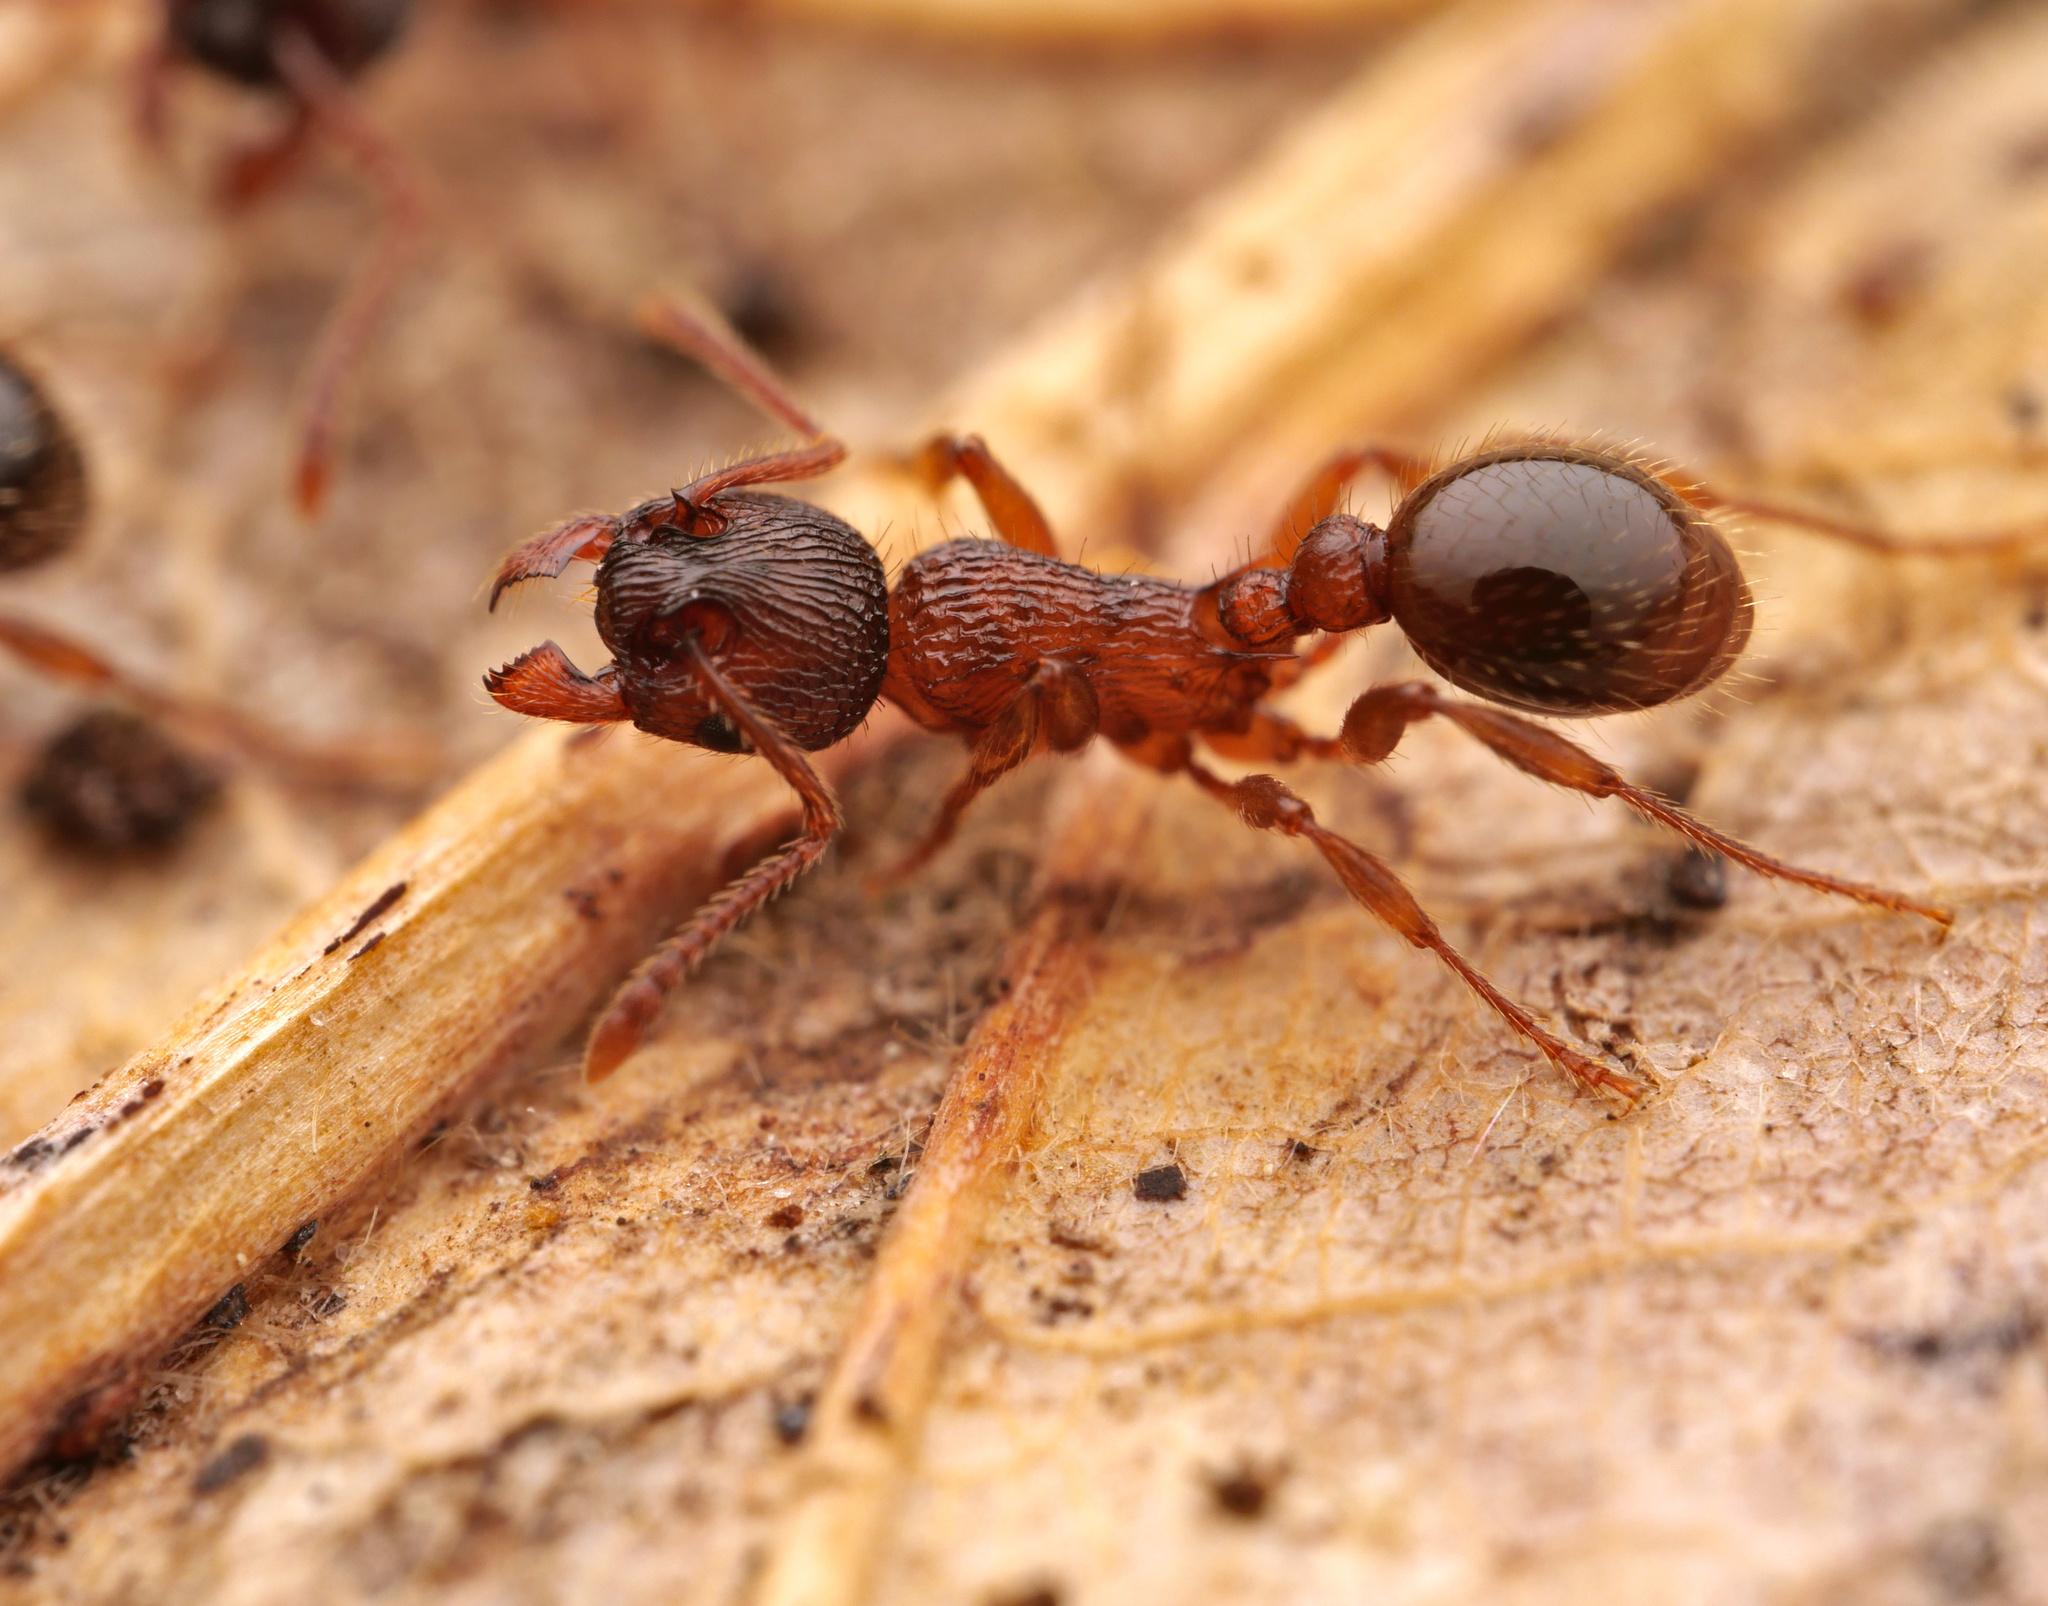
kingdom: Animalia
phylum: Arthropoda
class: Insecta
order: Hymenoptera
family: Formicidae
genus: Myrmica
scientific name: Myrmica schencki
